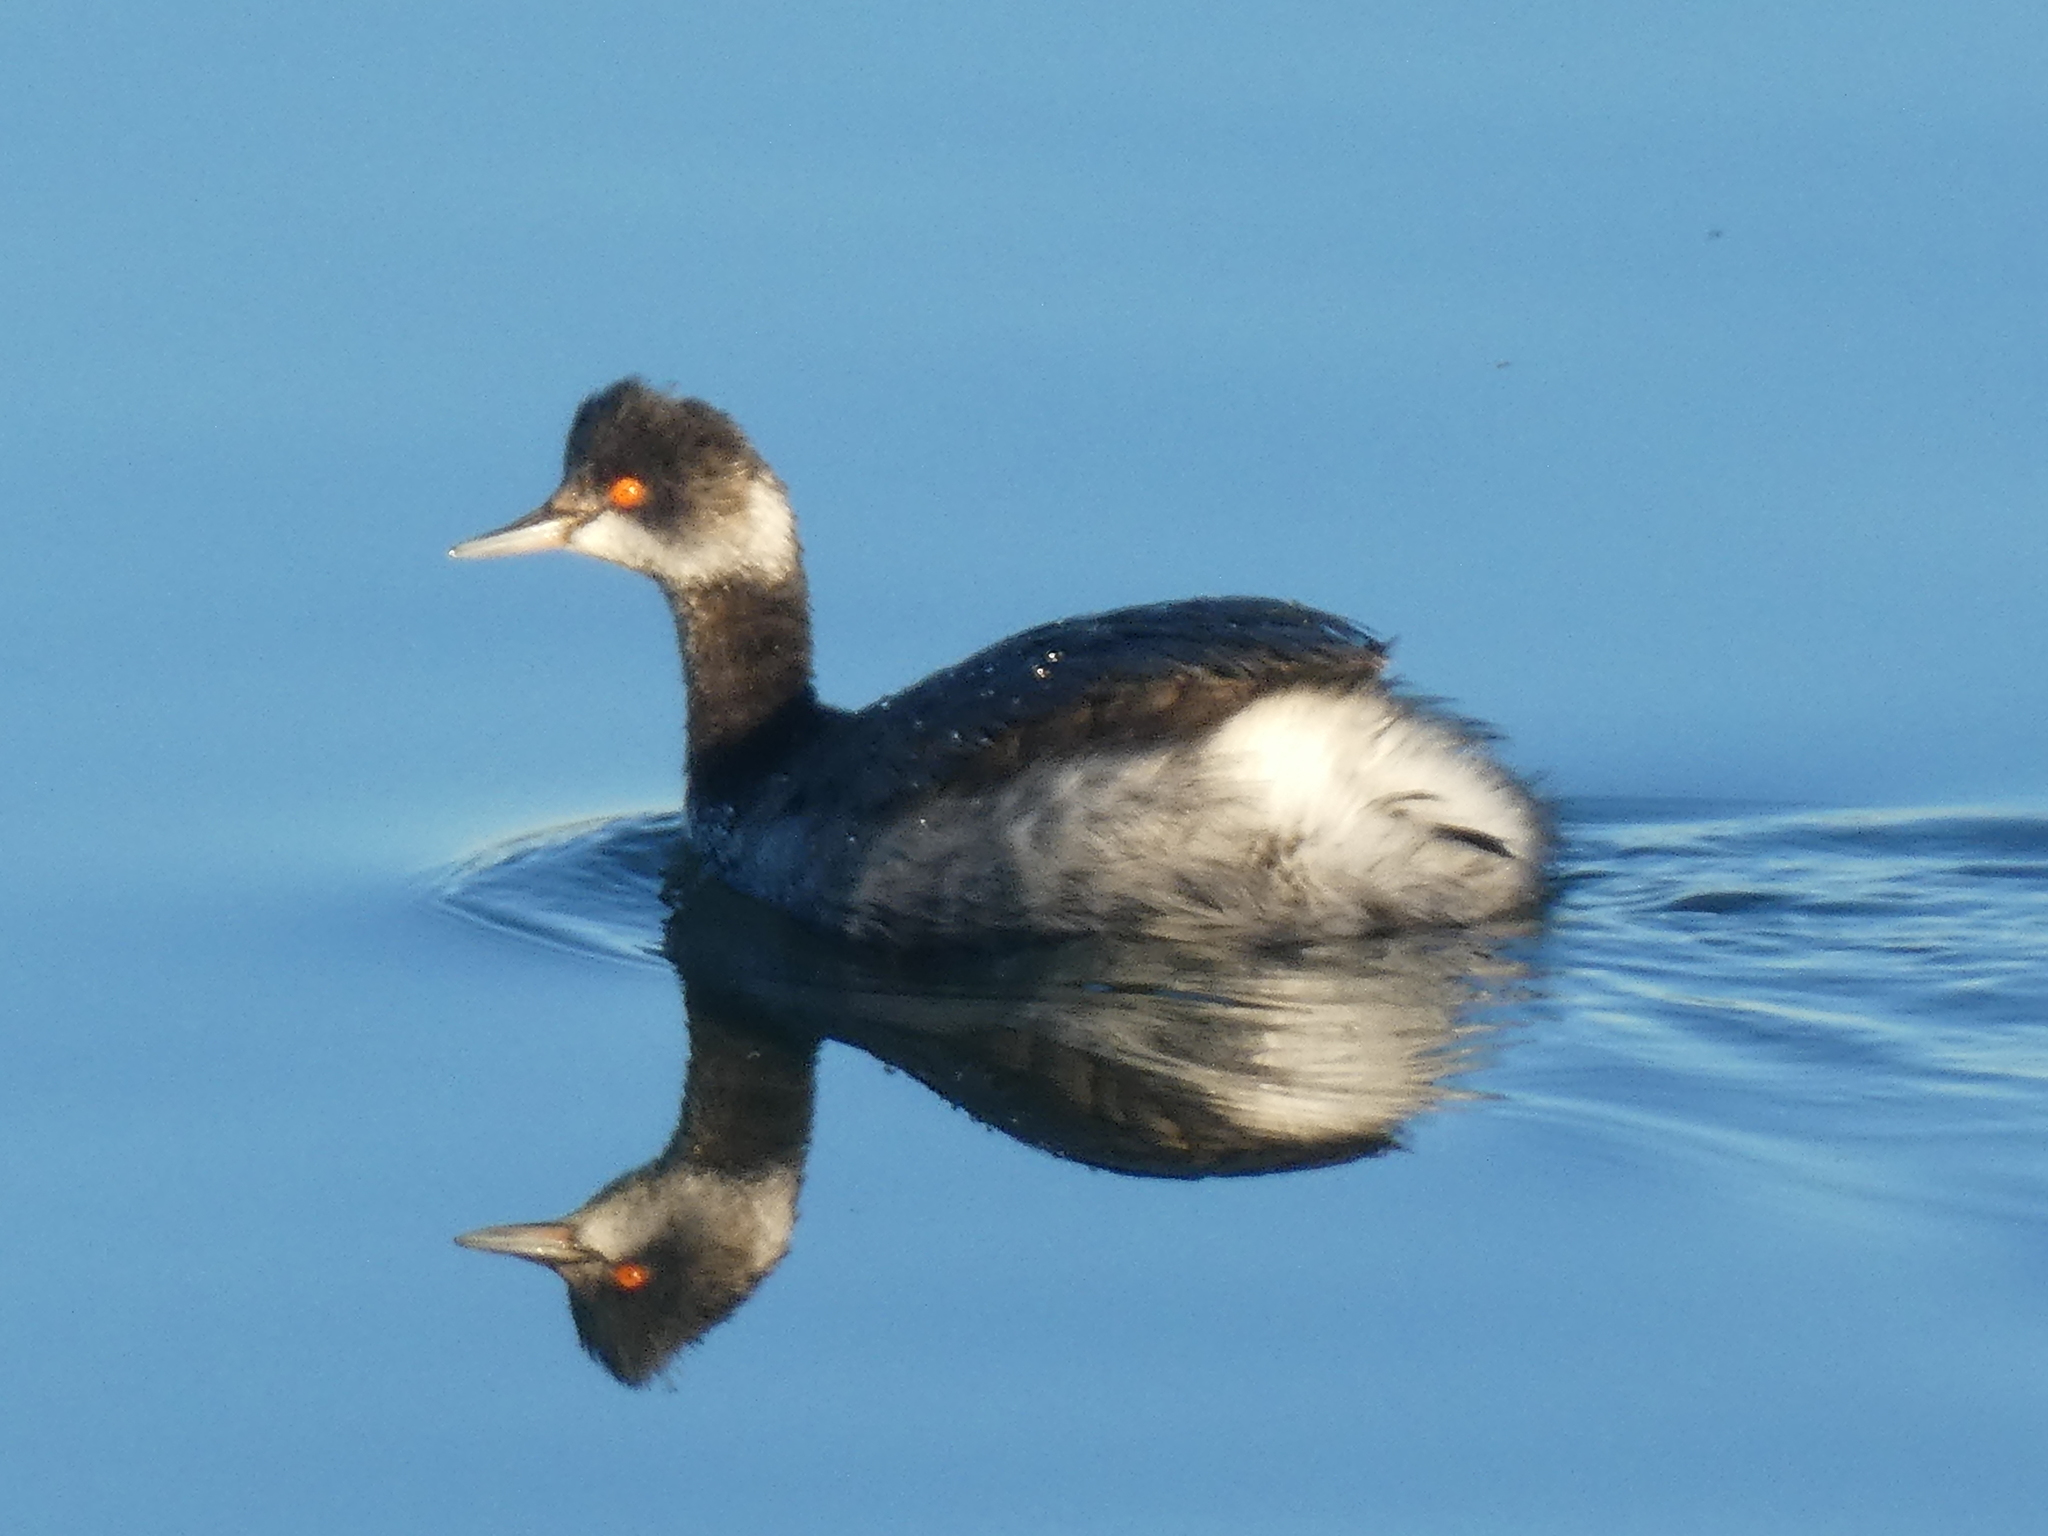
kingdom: Animalia
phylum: Chordata
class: Aves
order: Podicipediformes
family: Podicipedidae
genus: Podiceps
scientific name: Podiceps nigricollis
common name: Black-necked grebe
